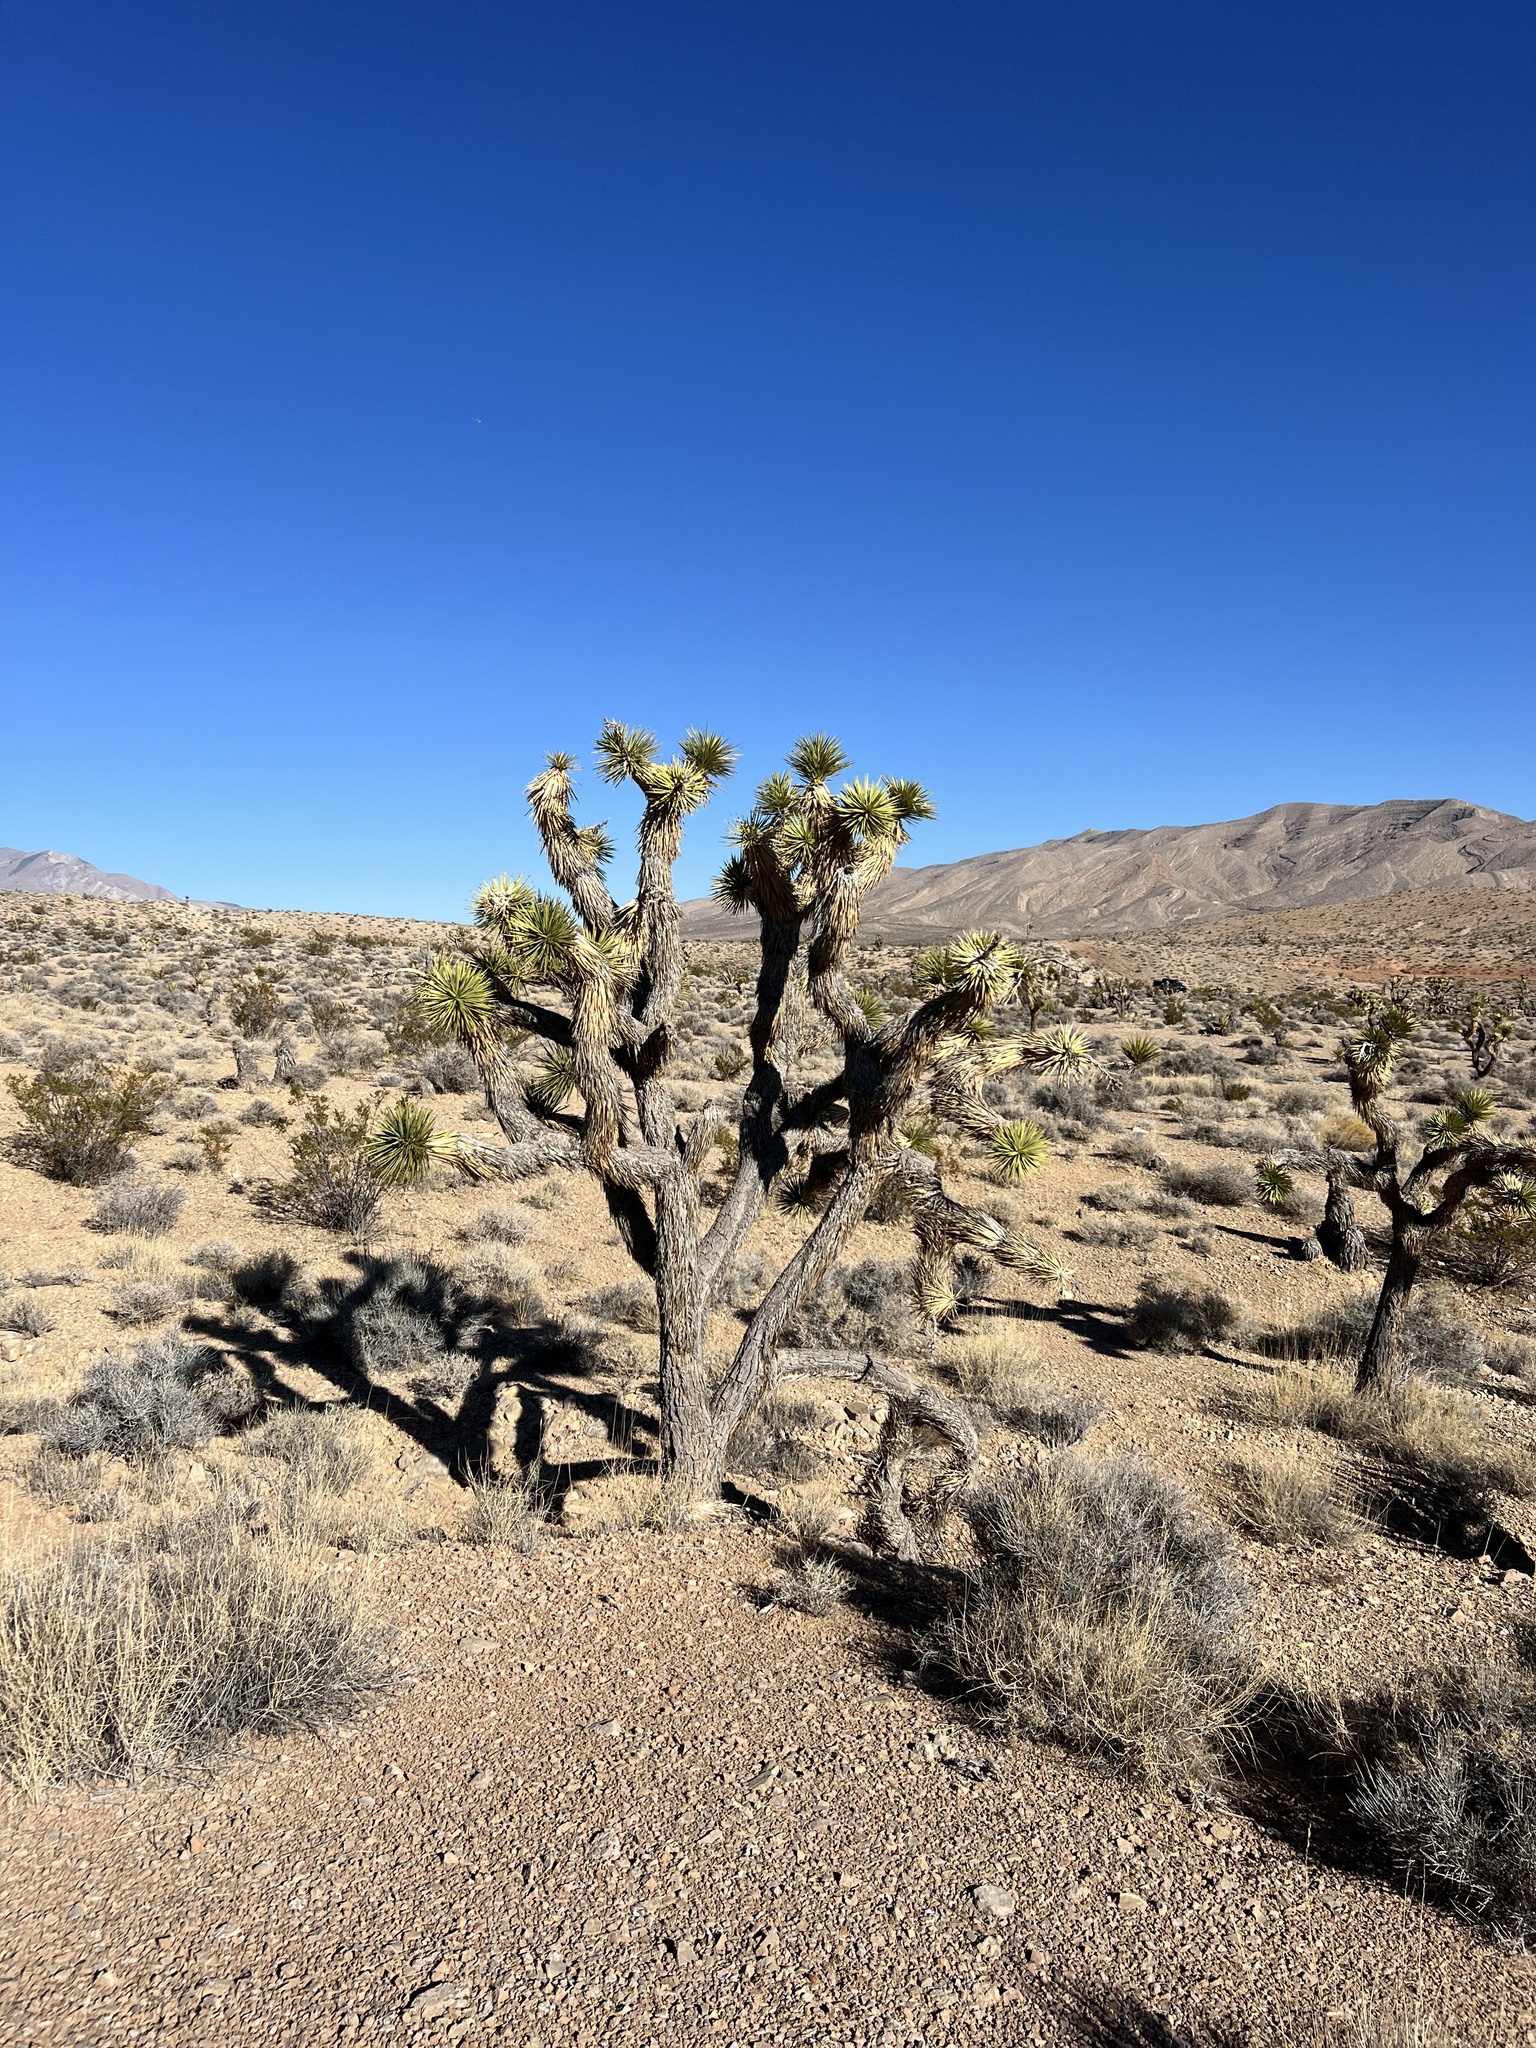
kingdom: Plantae
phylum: Tracheophyta
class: Liliopsida
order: Asparagales
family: Asparagaceae
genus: Yucca
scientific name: Yucca brevifolia
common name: Joshua tree
